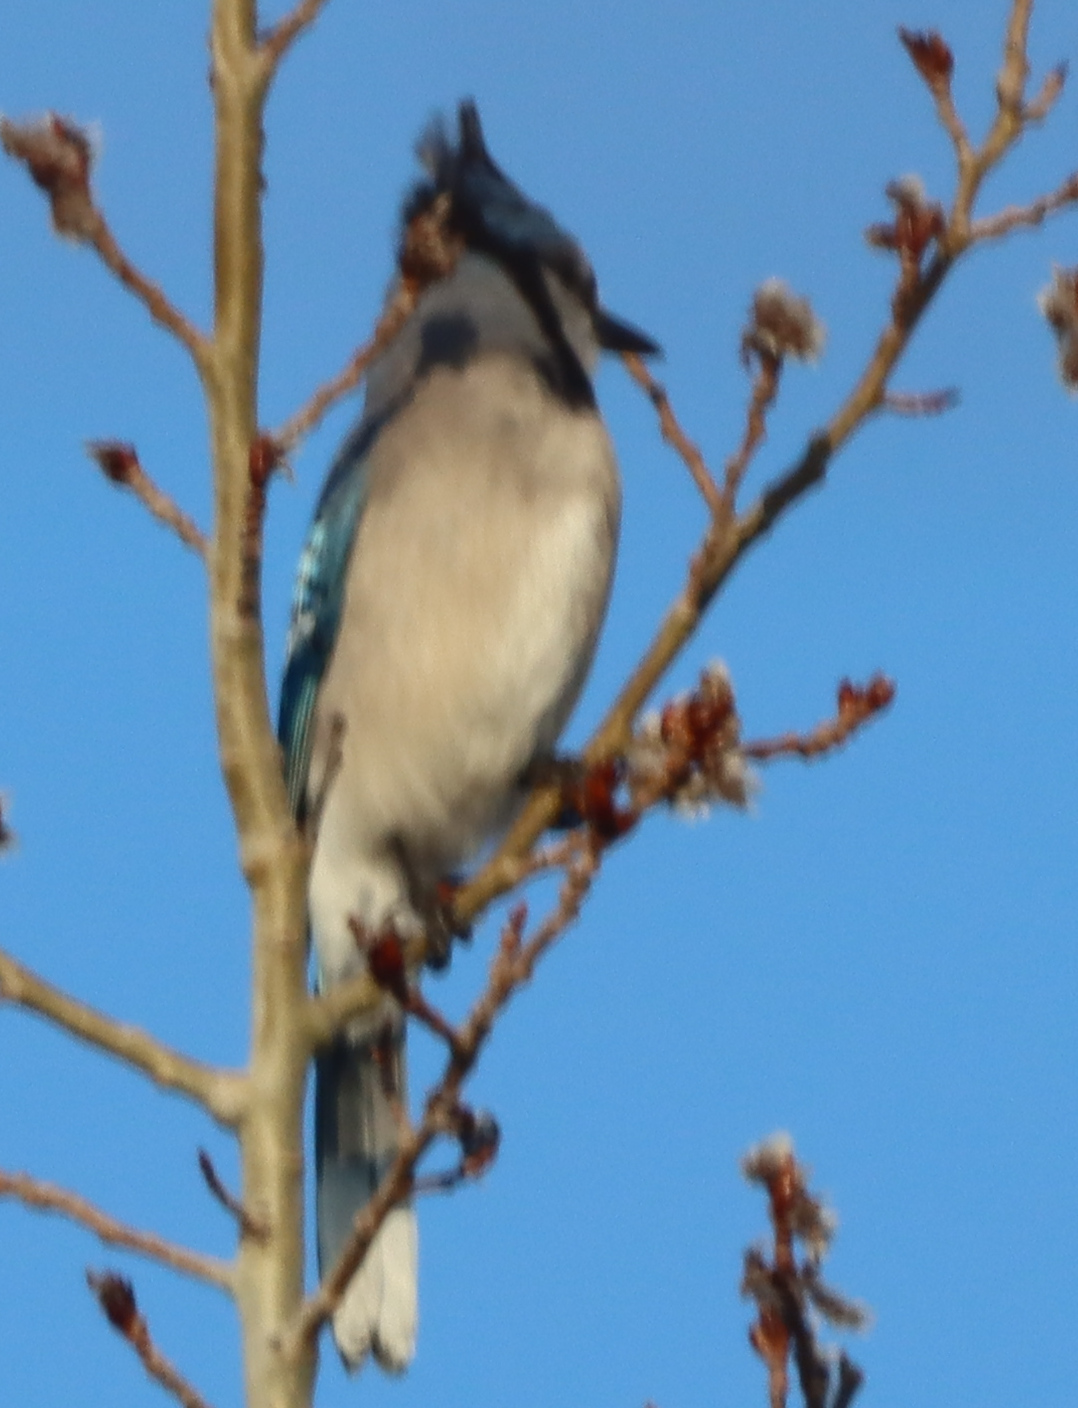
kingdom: Animalia
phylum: Chordata
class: Aves
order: Passeriformes
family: Corvidae
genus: Cyanocitta
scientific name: Cyanocitta cristata
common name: Blue jay
